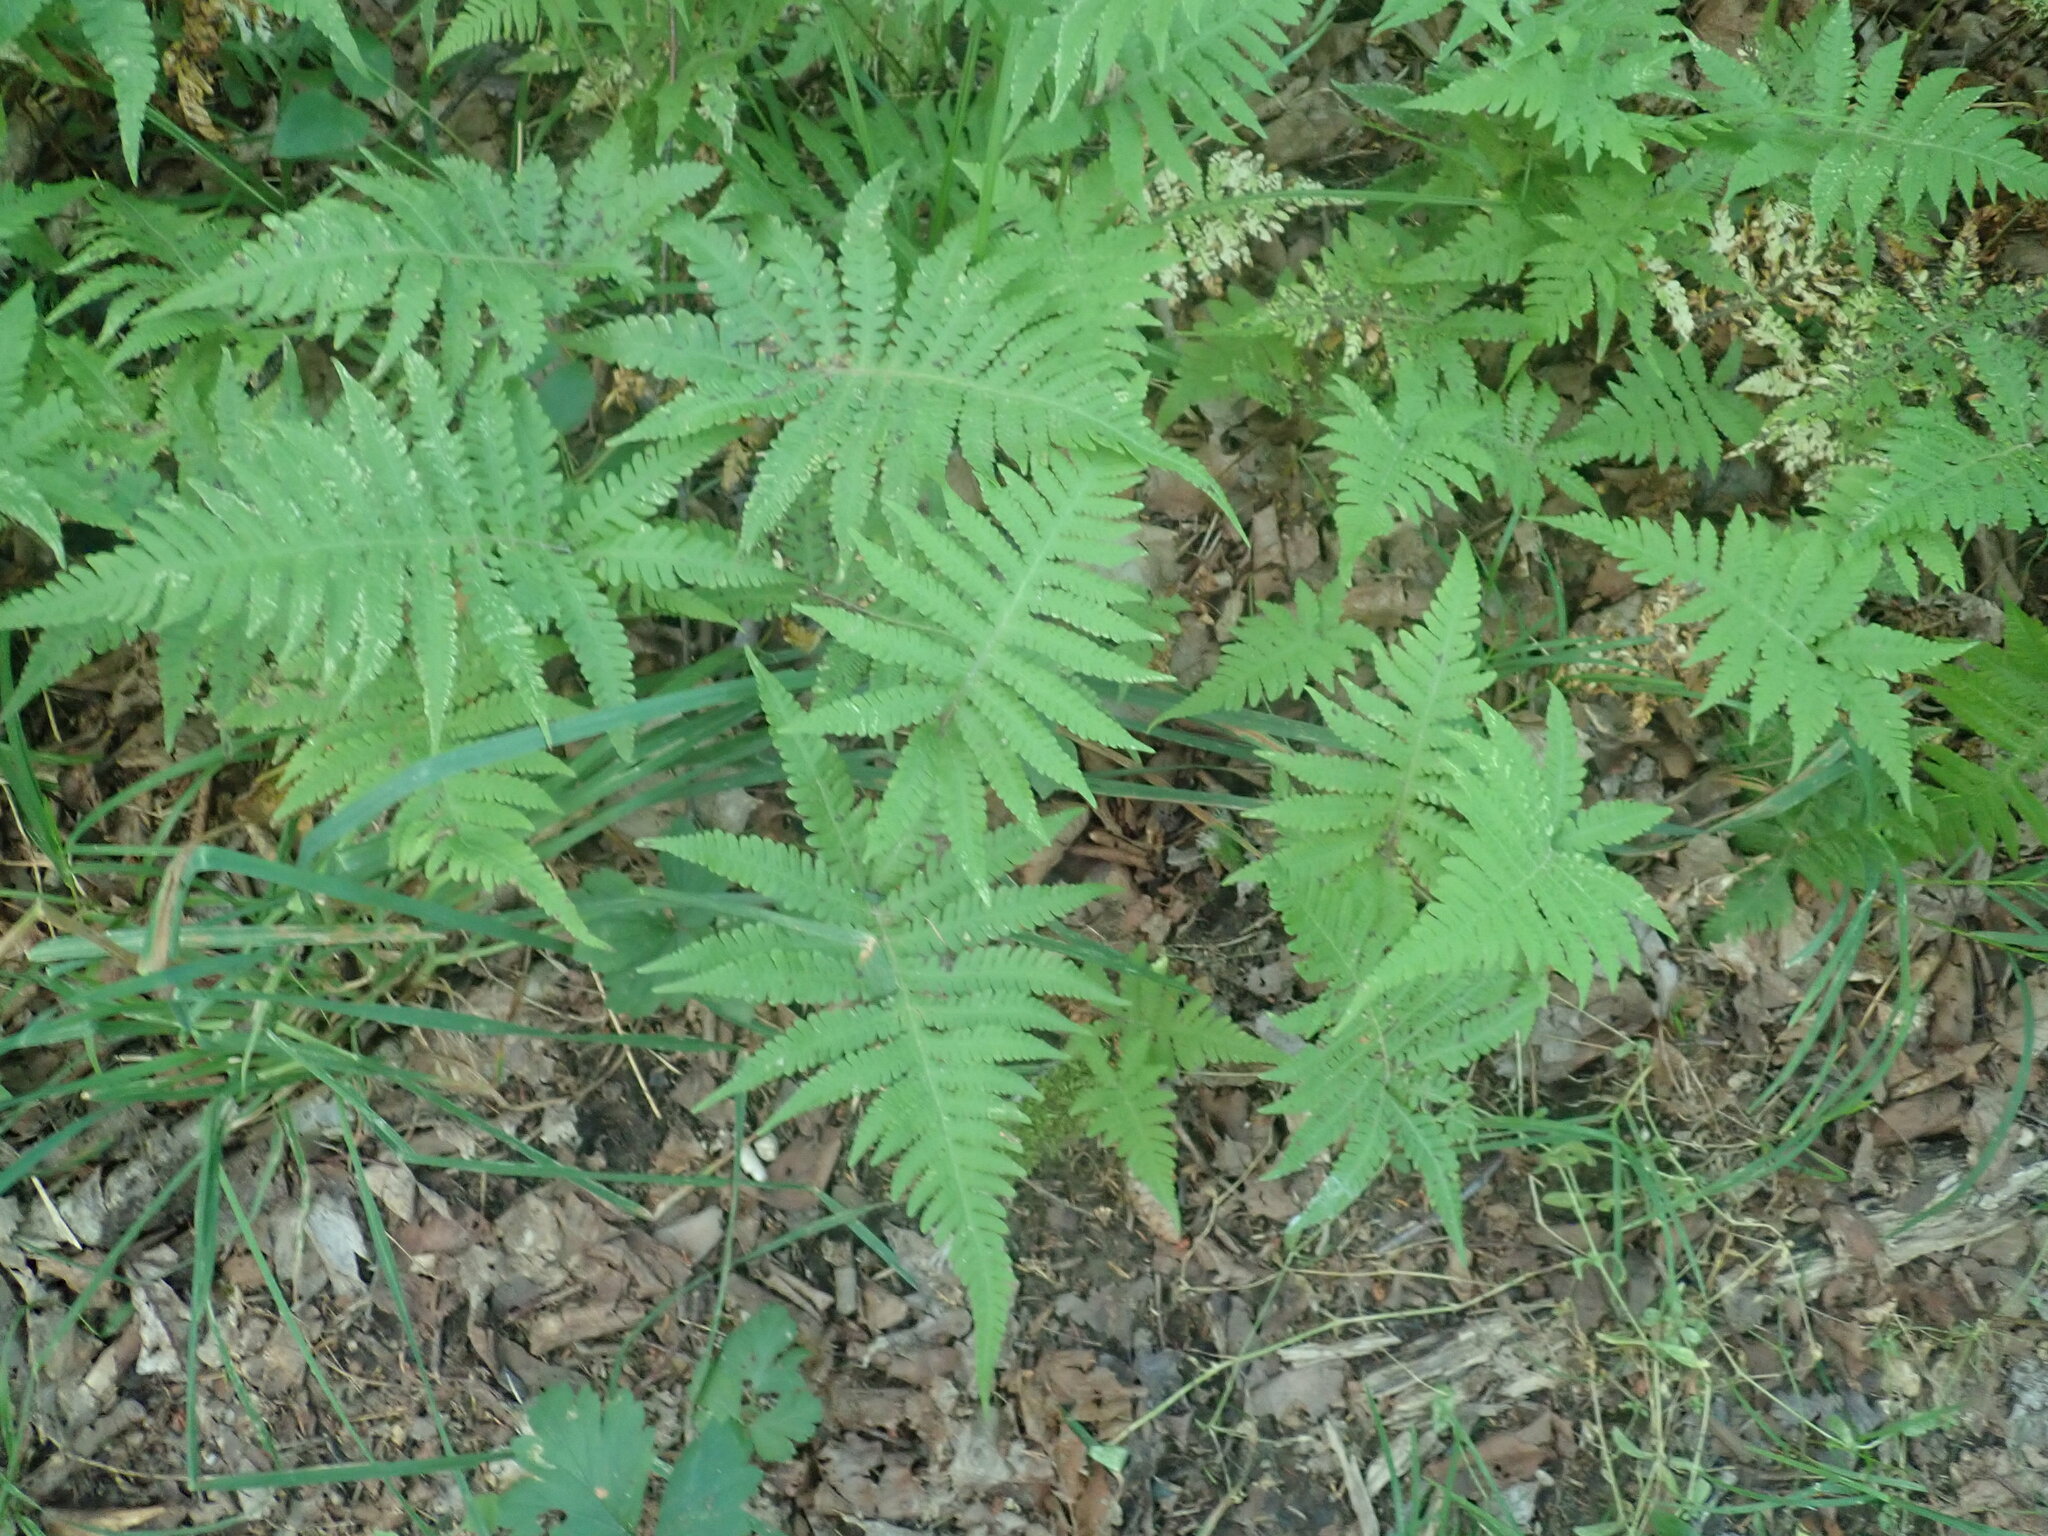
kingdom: Plantae
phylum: Tracheophyta
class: Polypodiopsida
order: Polypodiales
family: Thelypteridaceae
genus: Phegopteris
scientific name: Phegopteris connectilis
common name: Beech fern
